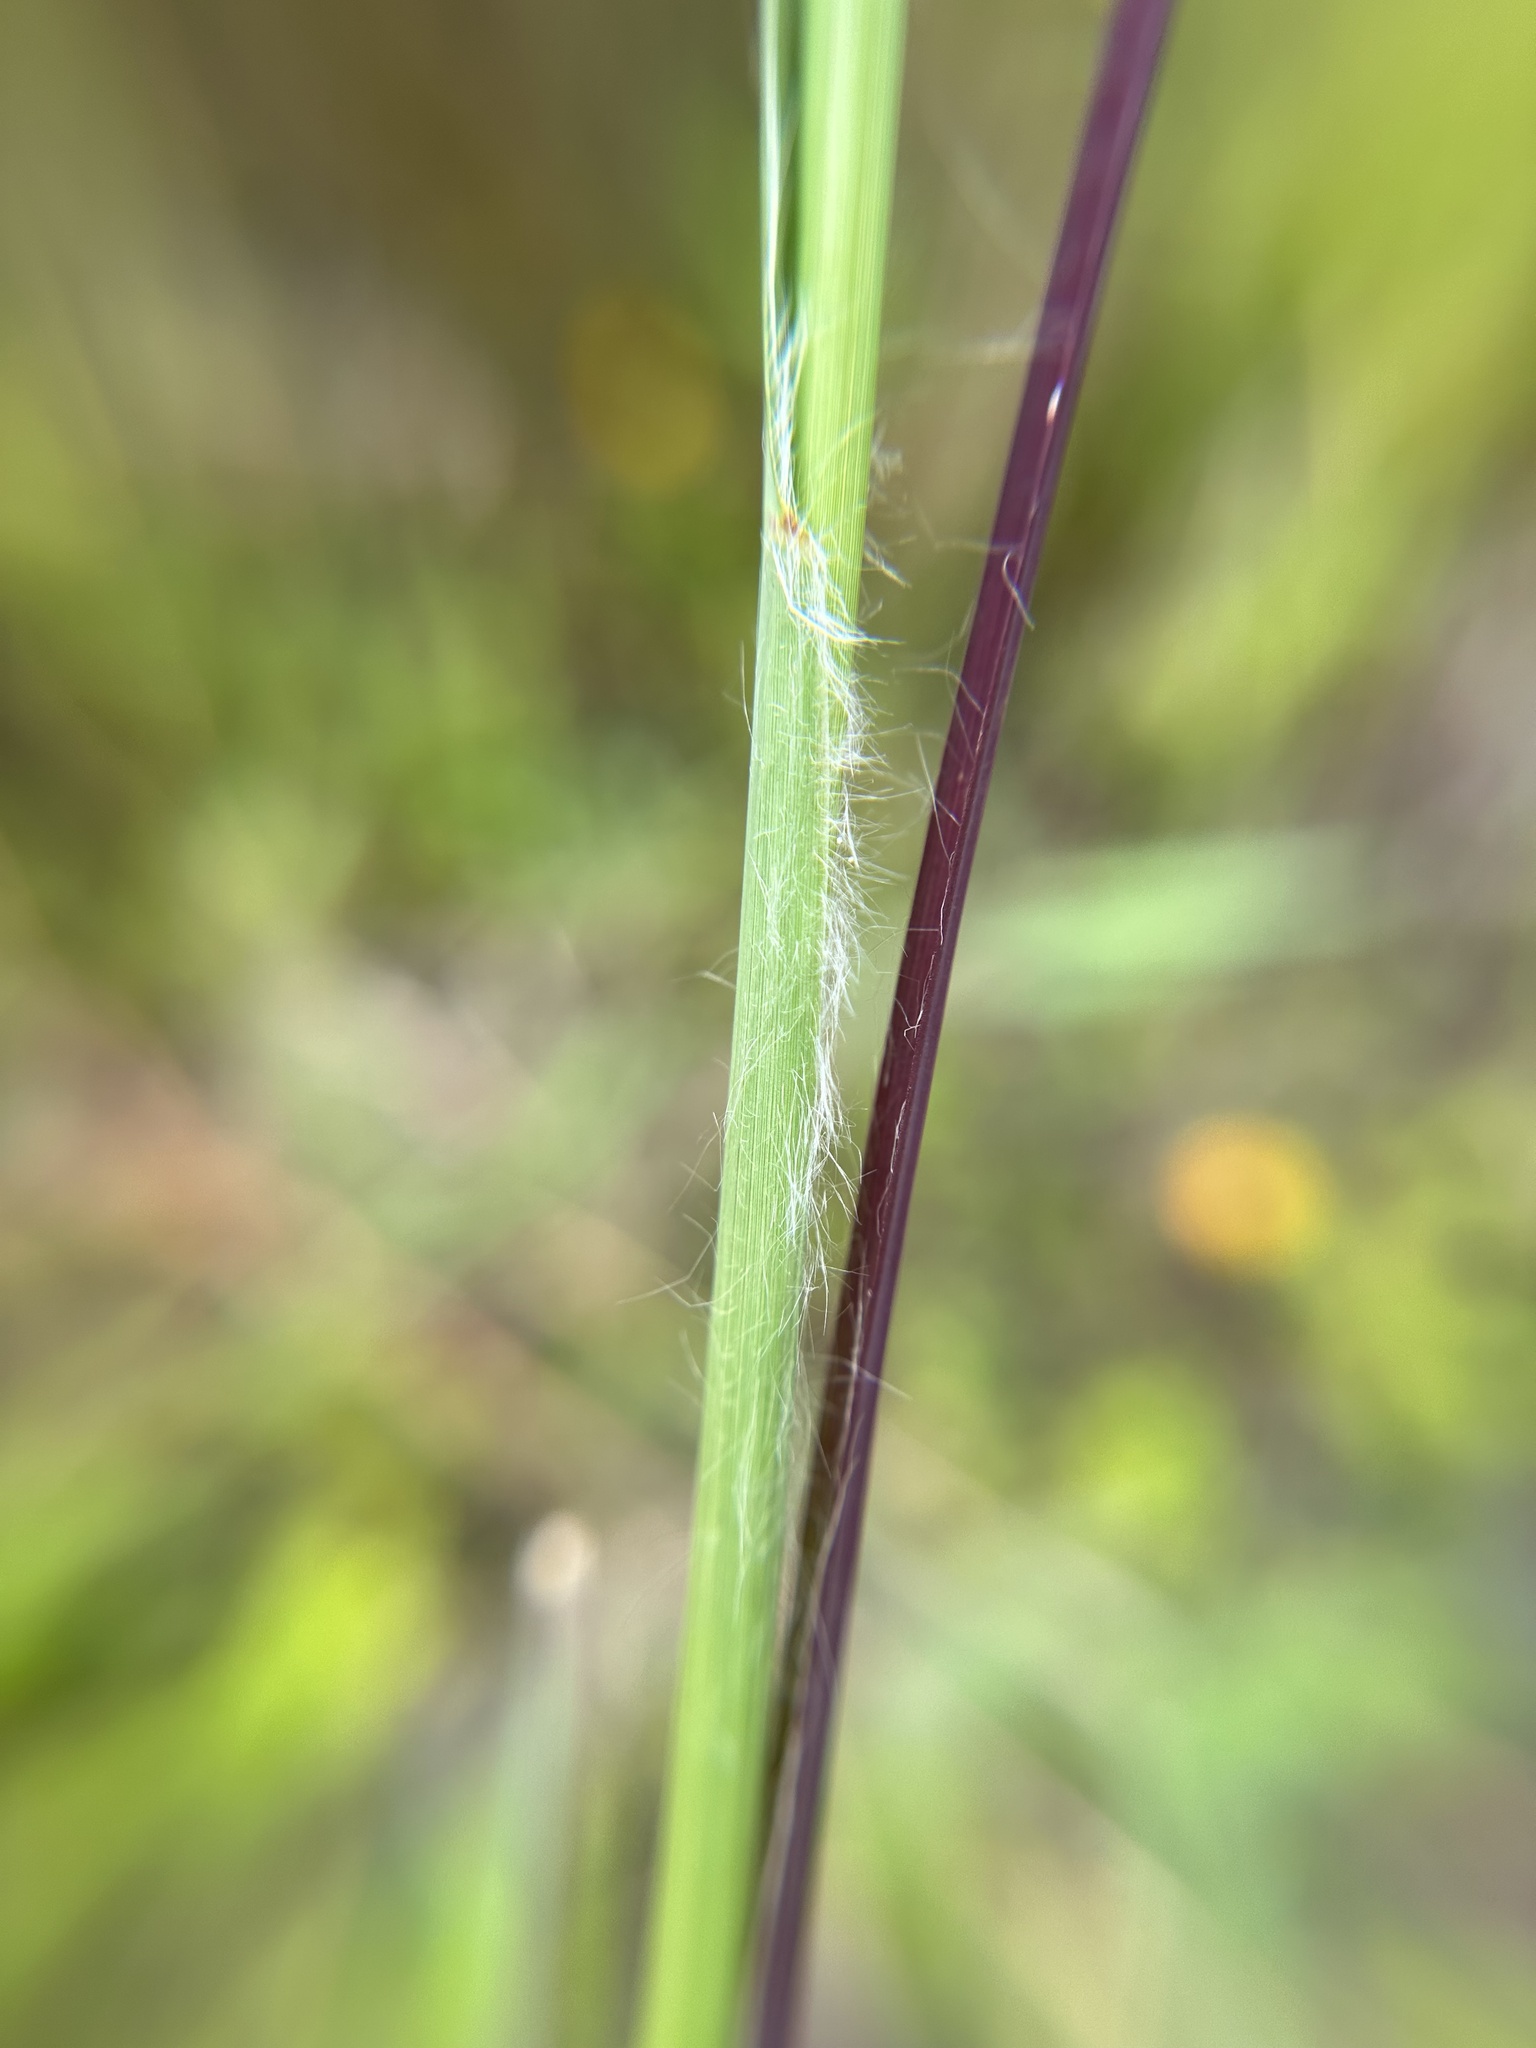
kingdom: Plantae
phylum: Tracheophyta
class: Liliopsida
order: Poales
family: Poaceae
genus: Schizachyrium
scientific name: Schizachyrium microstachyum
